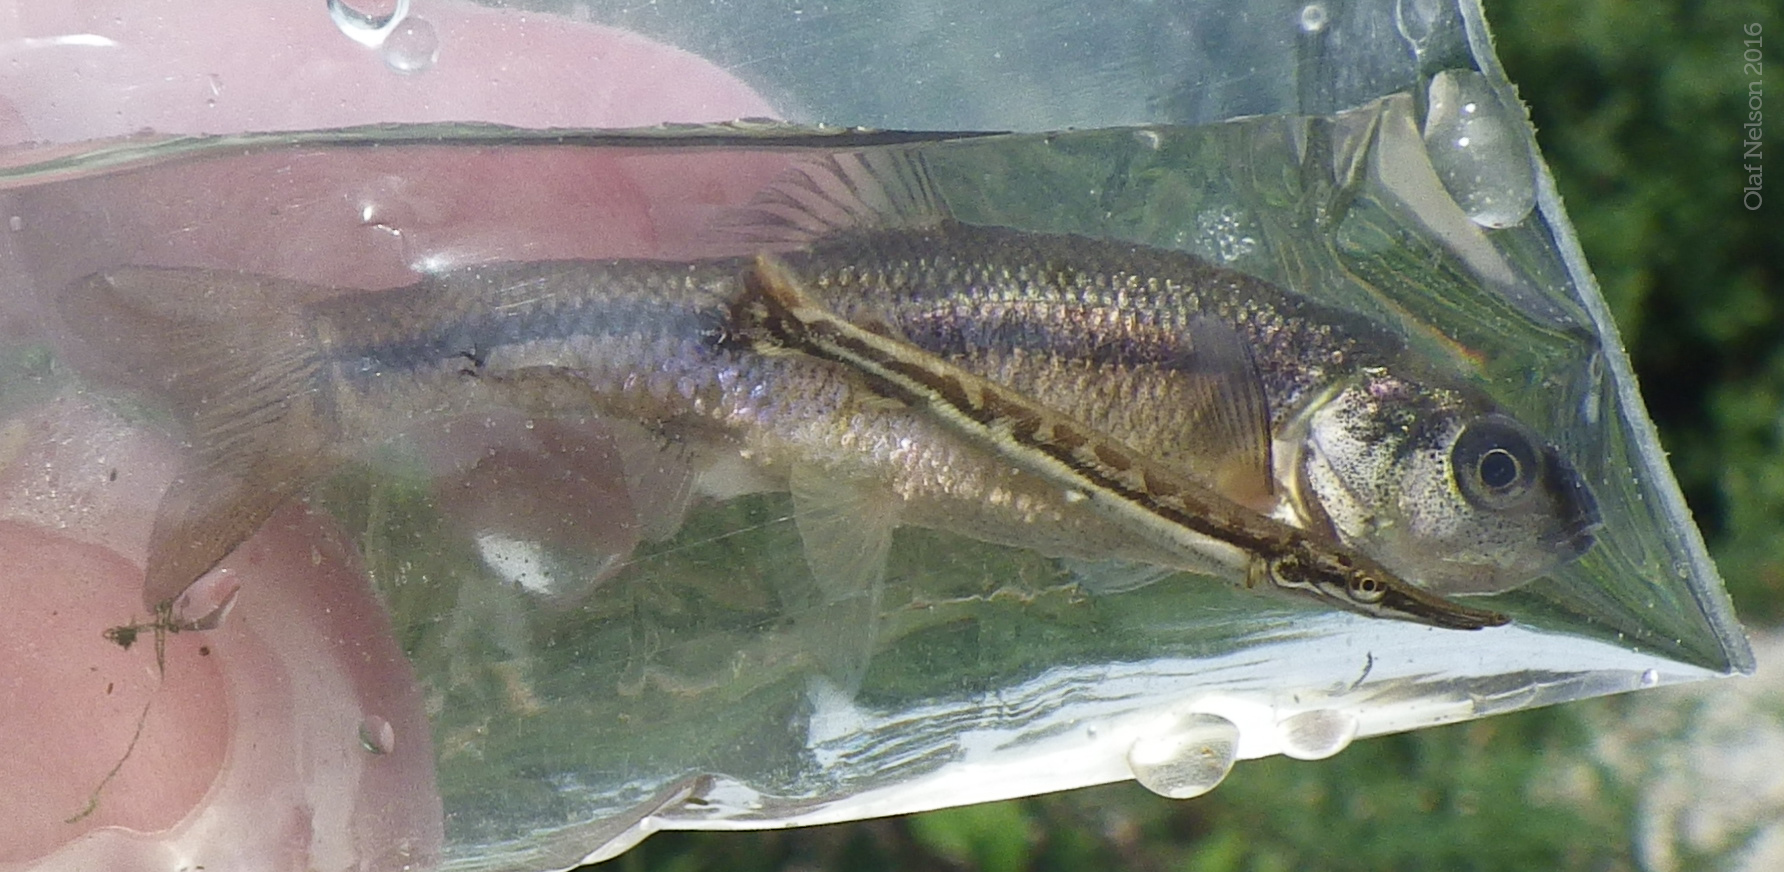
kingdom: Animalia
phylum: Chordata
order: Cypriniformes
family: Cyprinidae
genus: Pimephales
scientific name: Pimephales promelas
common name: Fathead minnow
